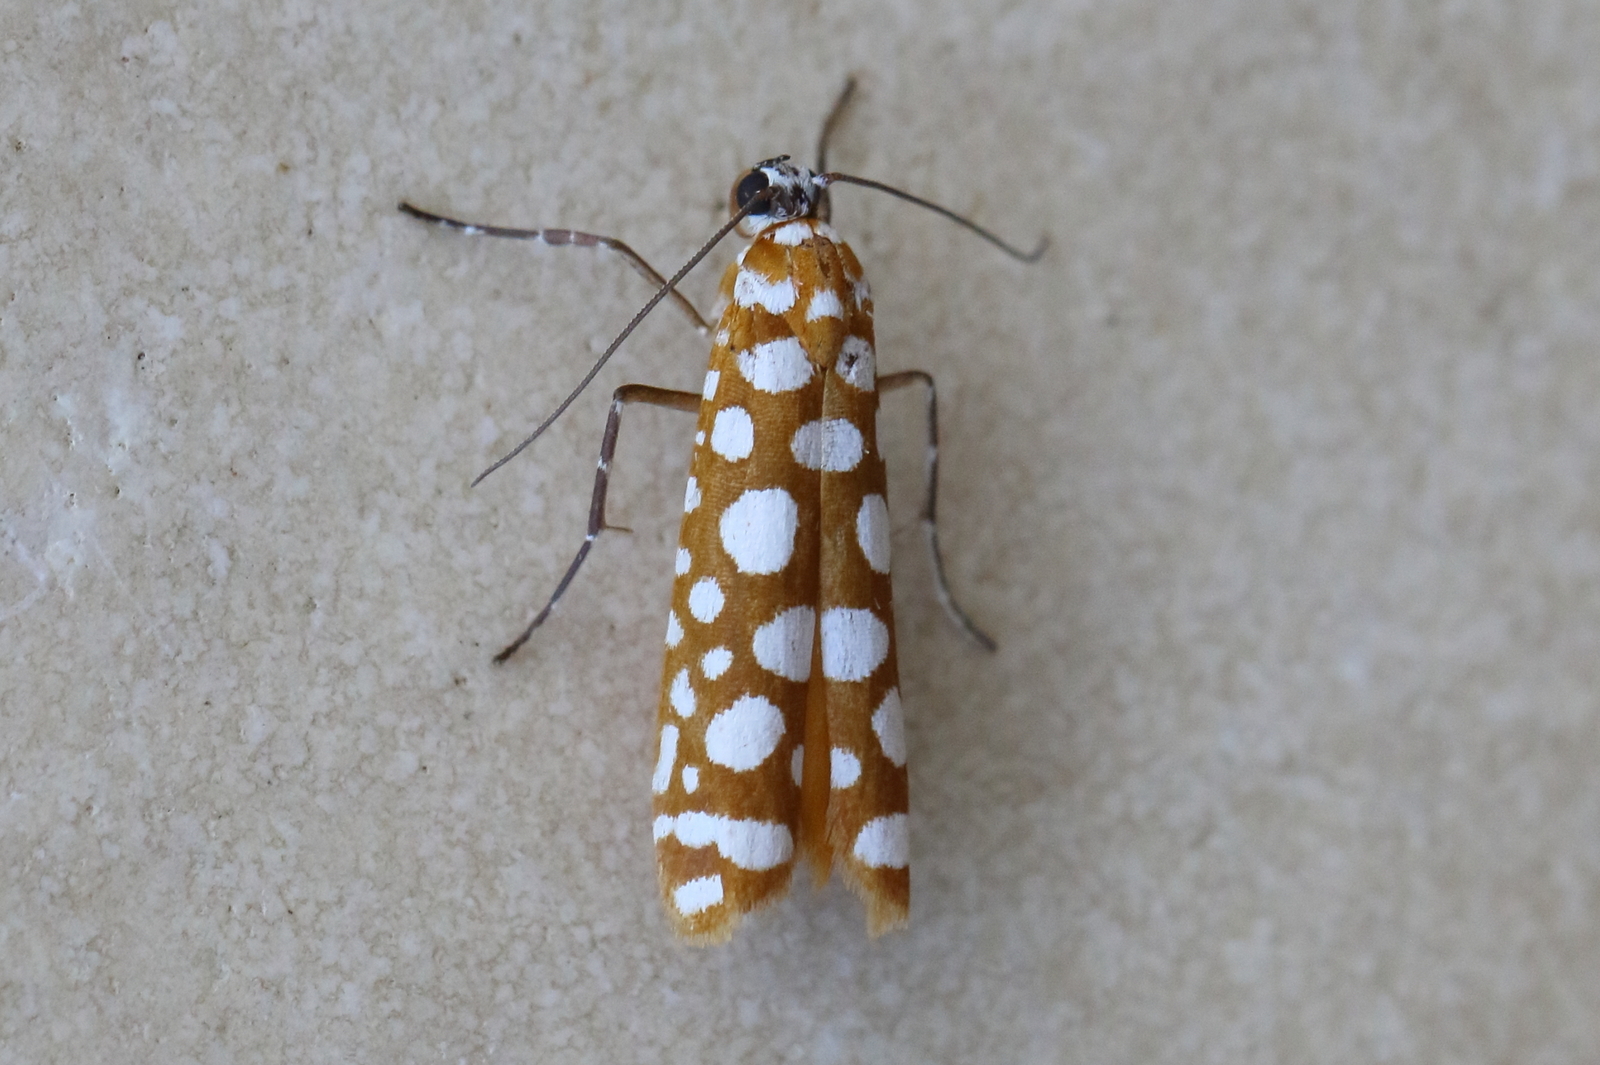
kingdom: Animalia
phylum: Arthropoda
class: Insecta
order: Lepidoptera
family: Attevidae
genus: Atteva
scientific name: Atteva niphocosma
